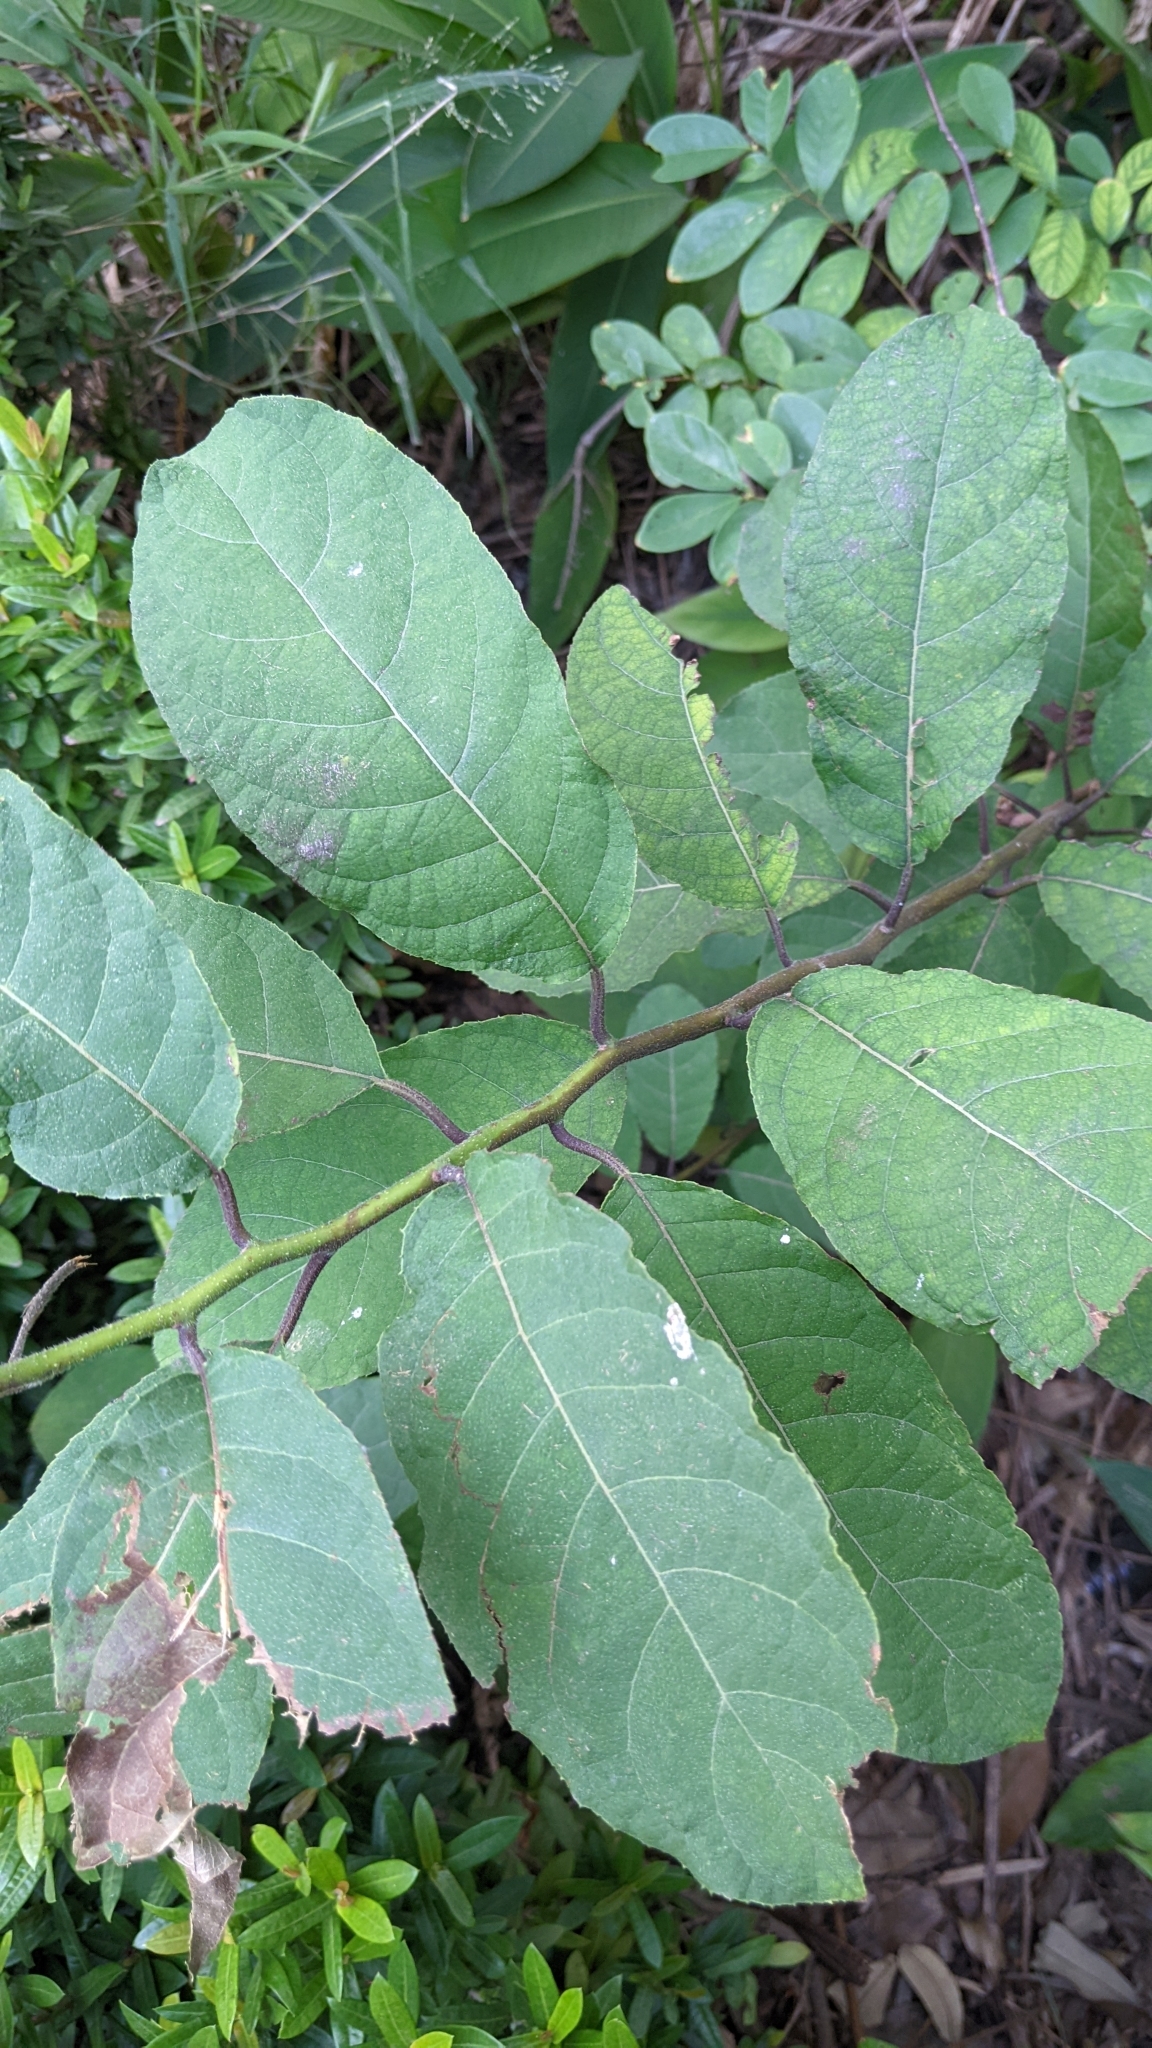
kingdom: Plantae
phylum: Tracheophyta
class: Magnoliopsida
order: Boraginales
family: Ehretiaceae
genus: Ehretia
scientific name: Ehretia dicksonii
